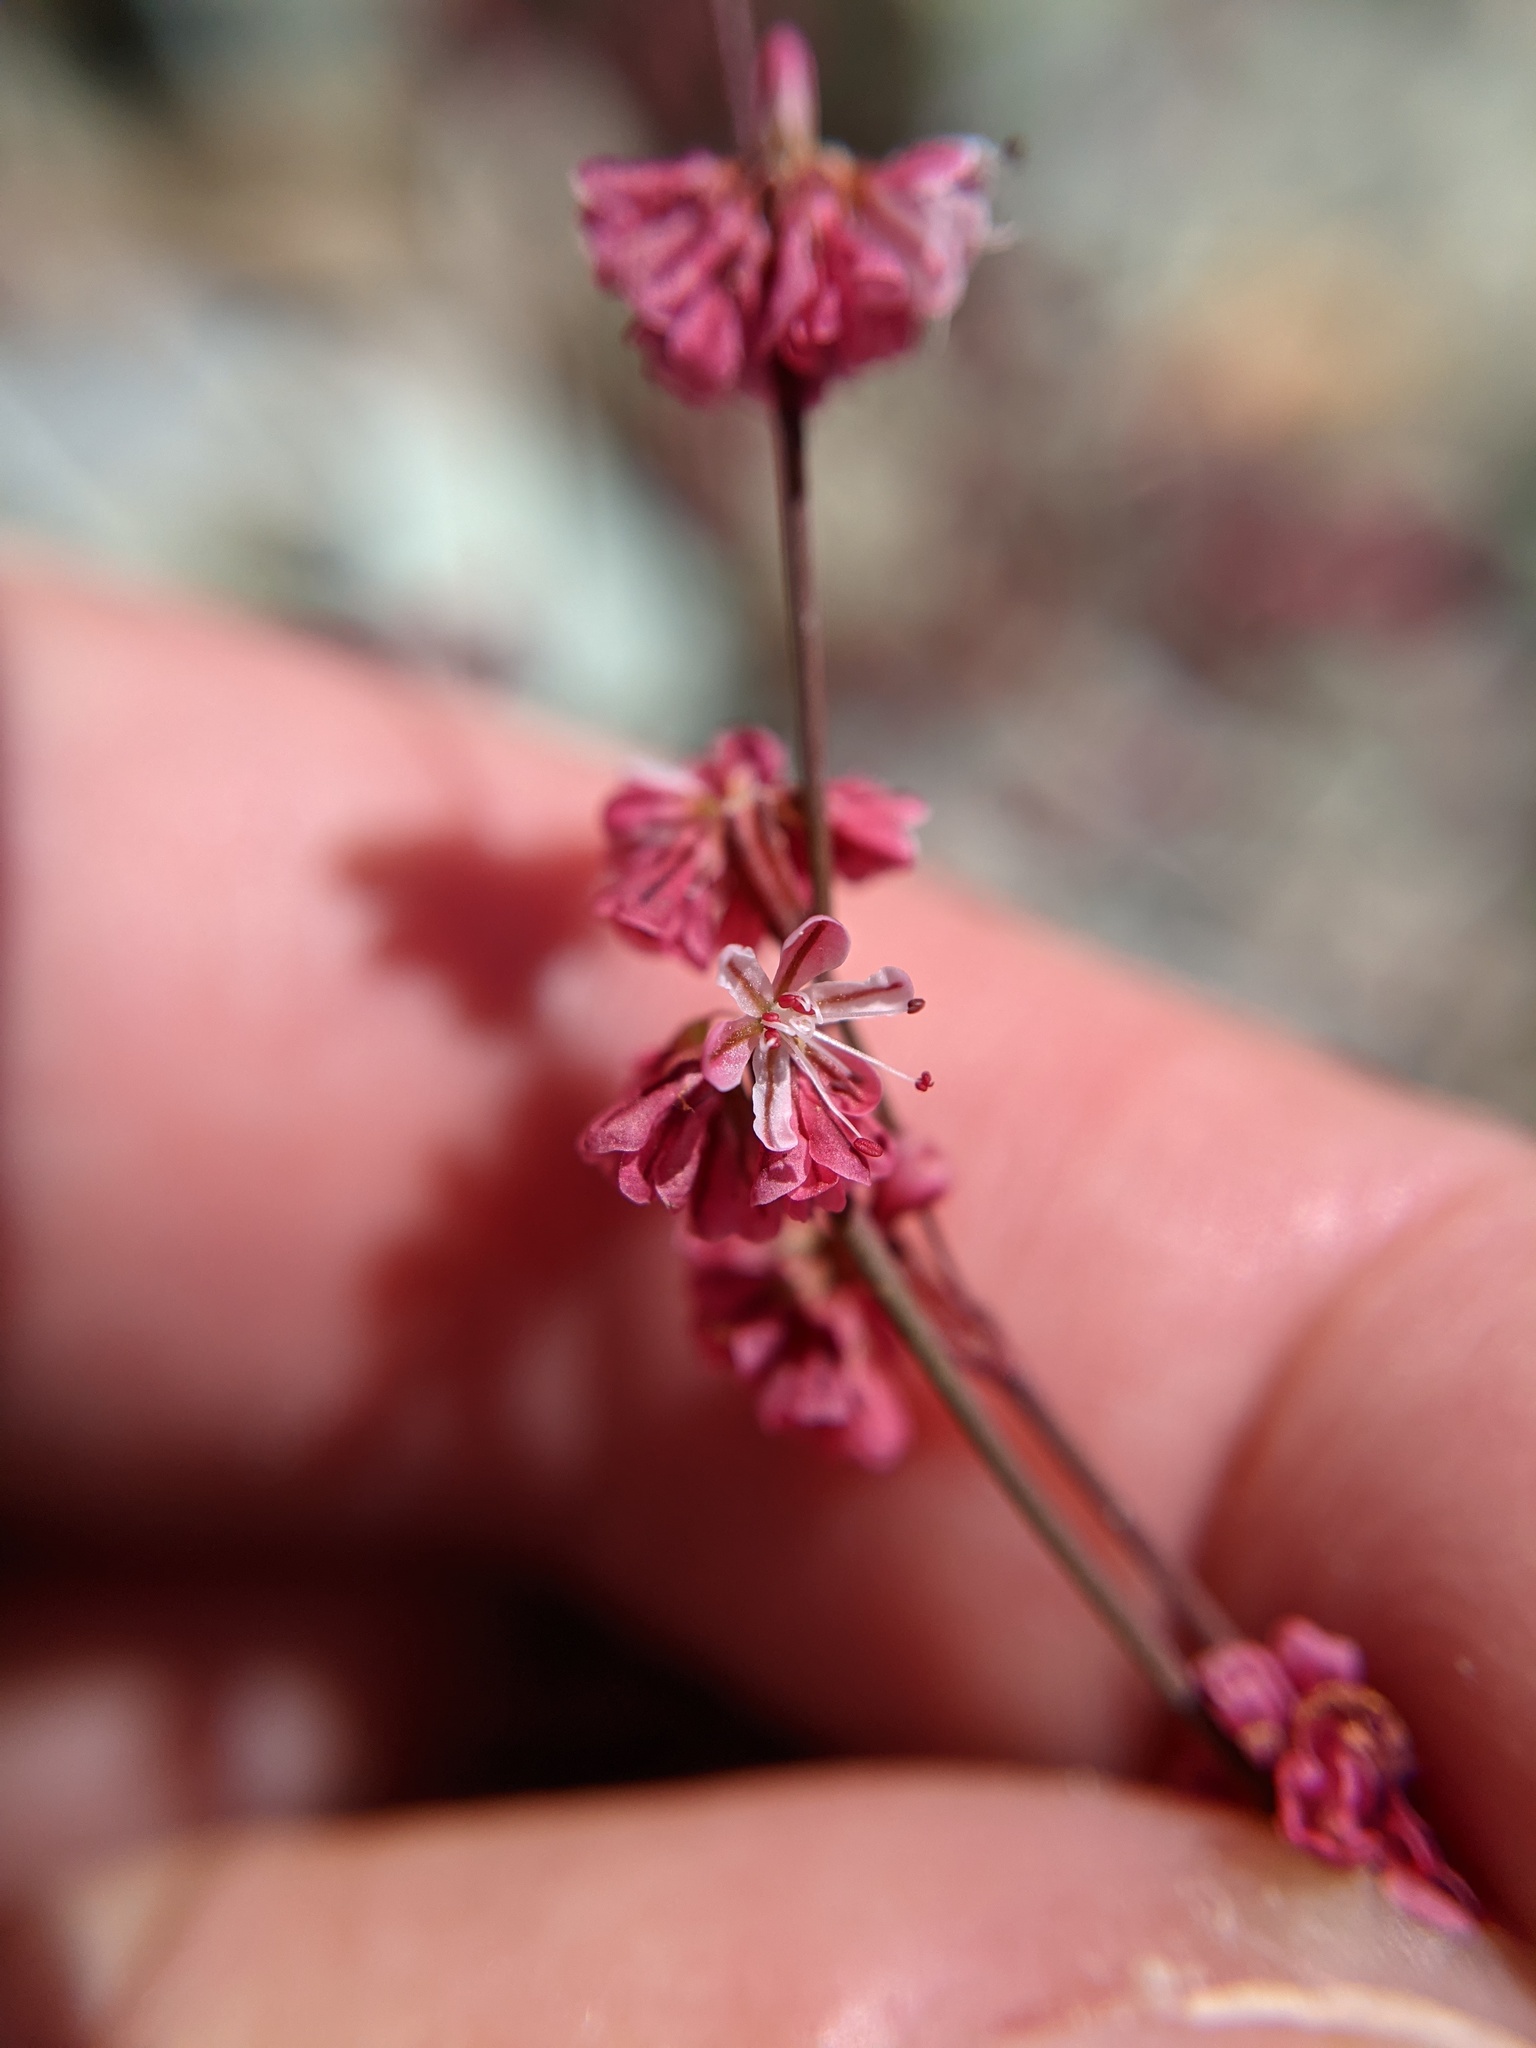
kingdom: Plantae
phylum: Tracheophyta
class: Magnoliopsida
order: Caryophyllales
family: Polygonaceae
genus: Eriogonum
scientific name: Eriogonum luteolum
